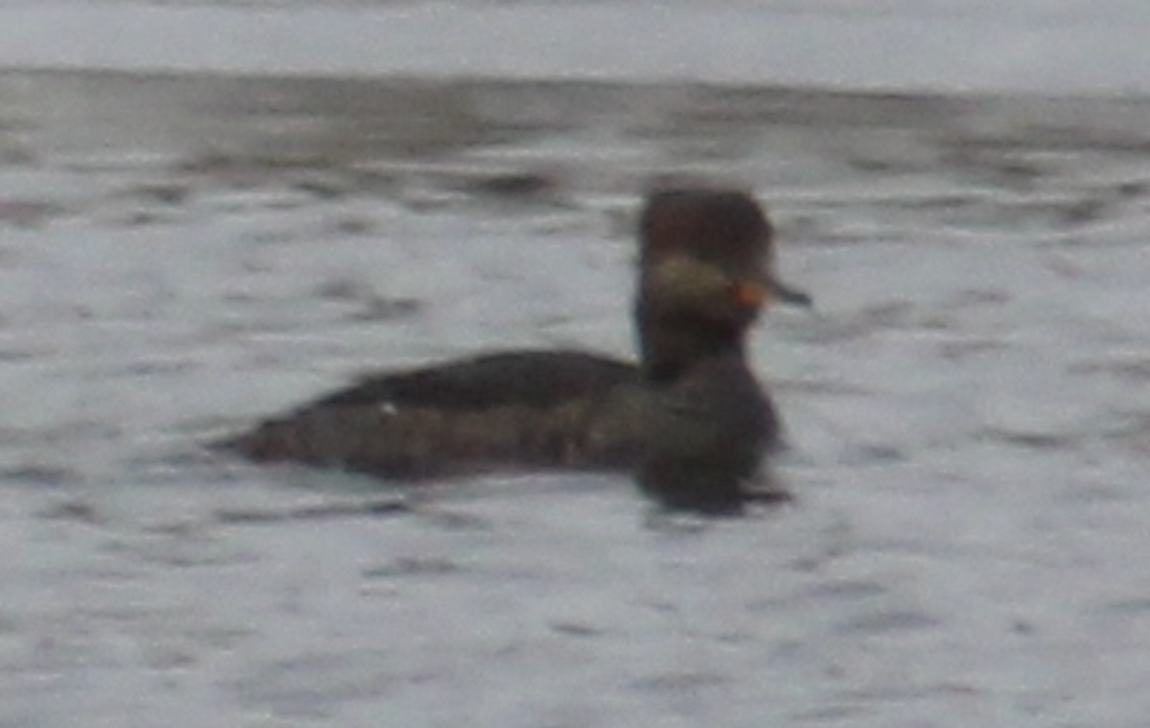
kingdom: Animalia
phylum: Chordata
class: Aves
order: Anseriformes
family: Anatidae
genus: Lophodytes
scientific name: Lophodytes cucullatus
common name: Hooded merganser
